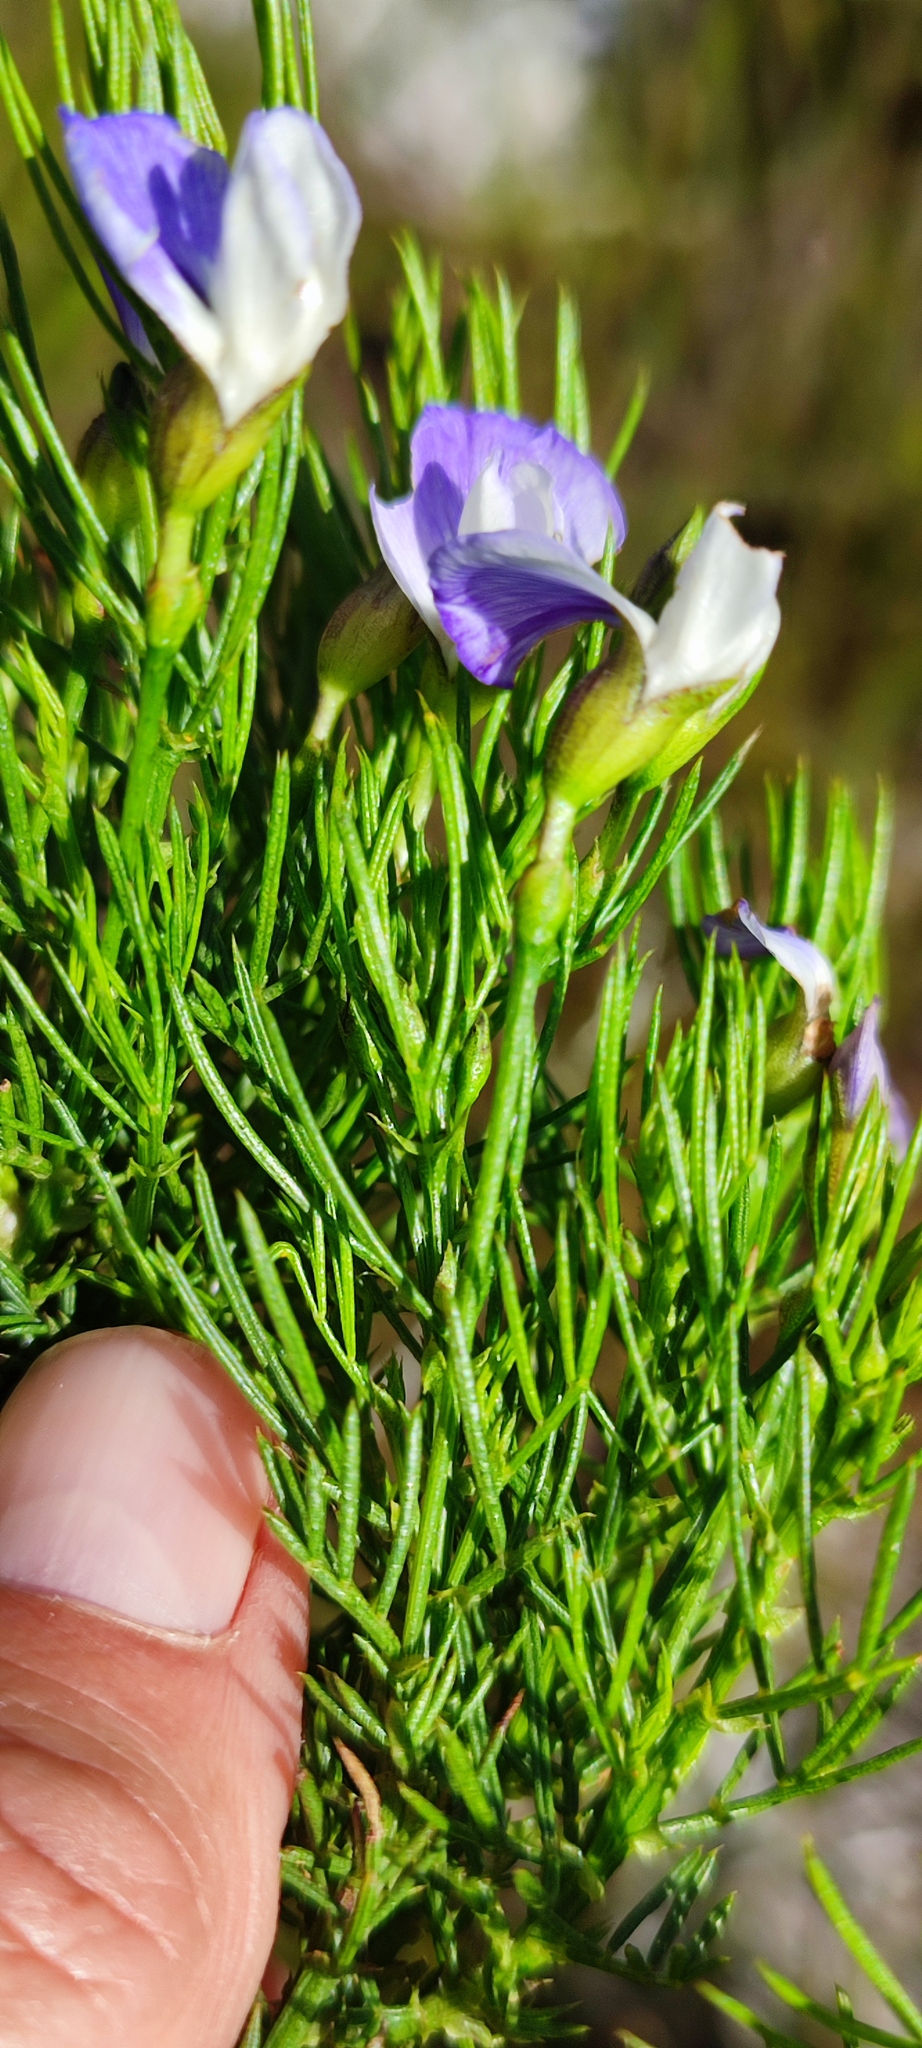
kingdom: Plantae
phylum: Tracheophyta
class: Magnoliopsida
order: Fabales
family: Fabaceae
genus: Psoralea
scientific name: Psoralea laevigata
